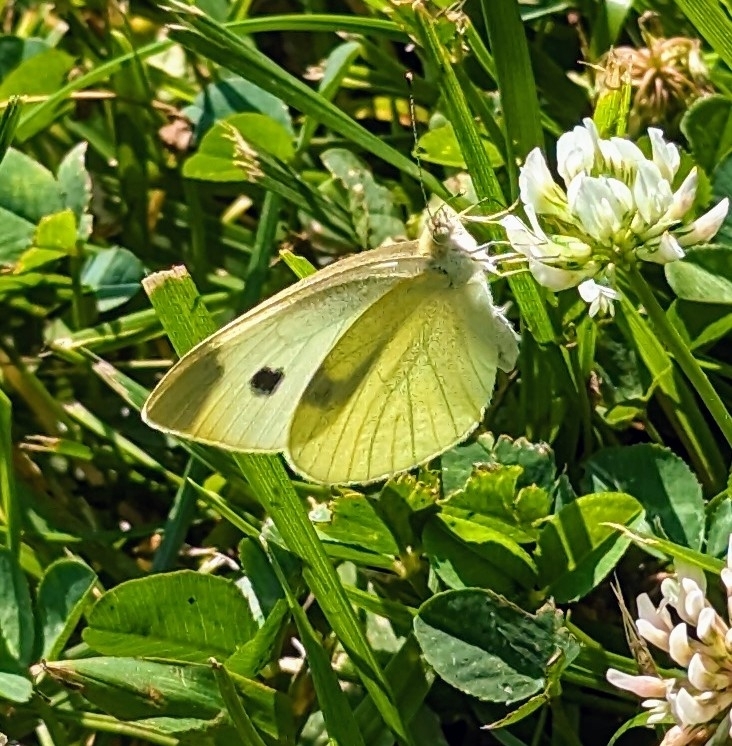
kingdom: Animalia
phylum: Arthropoda
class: Insecta
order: Lepidoptera
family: Pieridae
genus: Pieris
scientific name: Pieris rapae
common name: Small white
